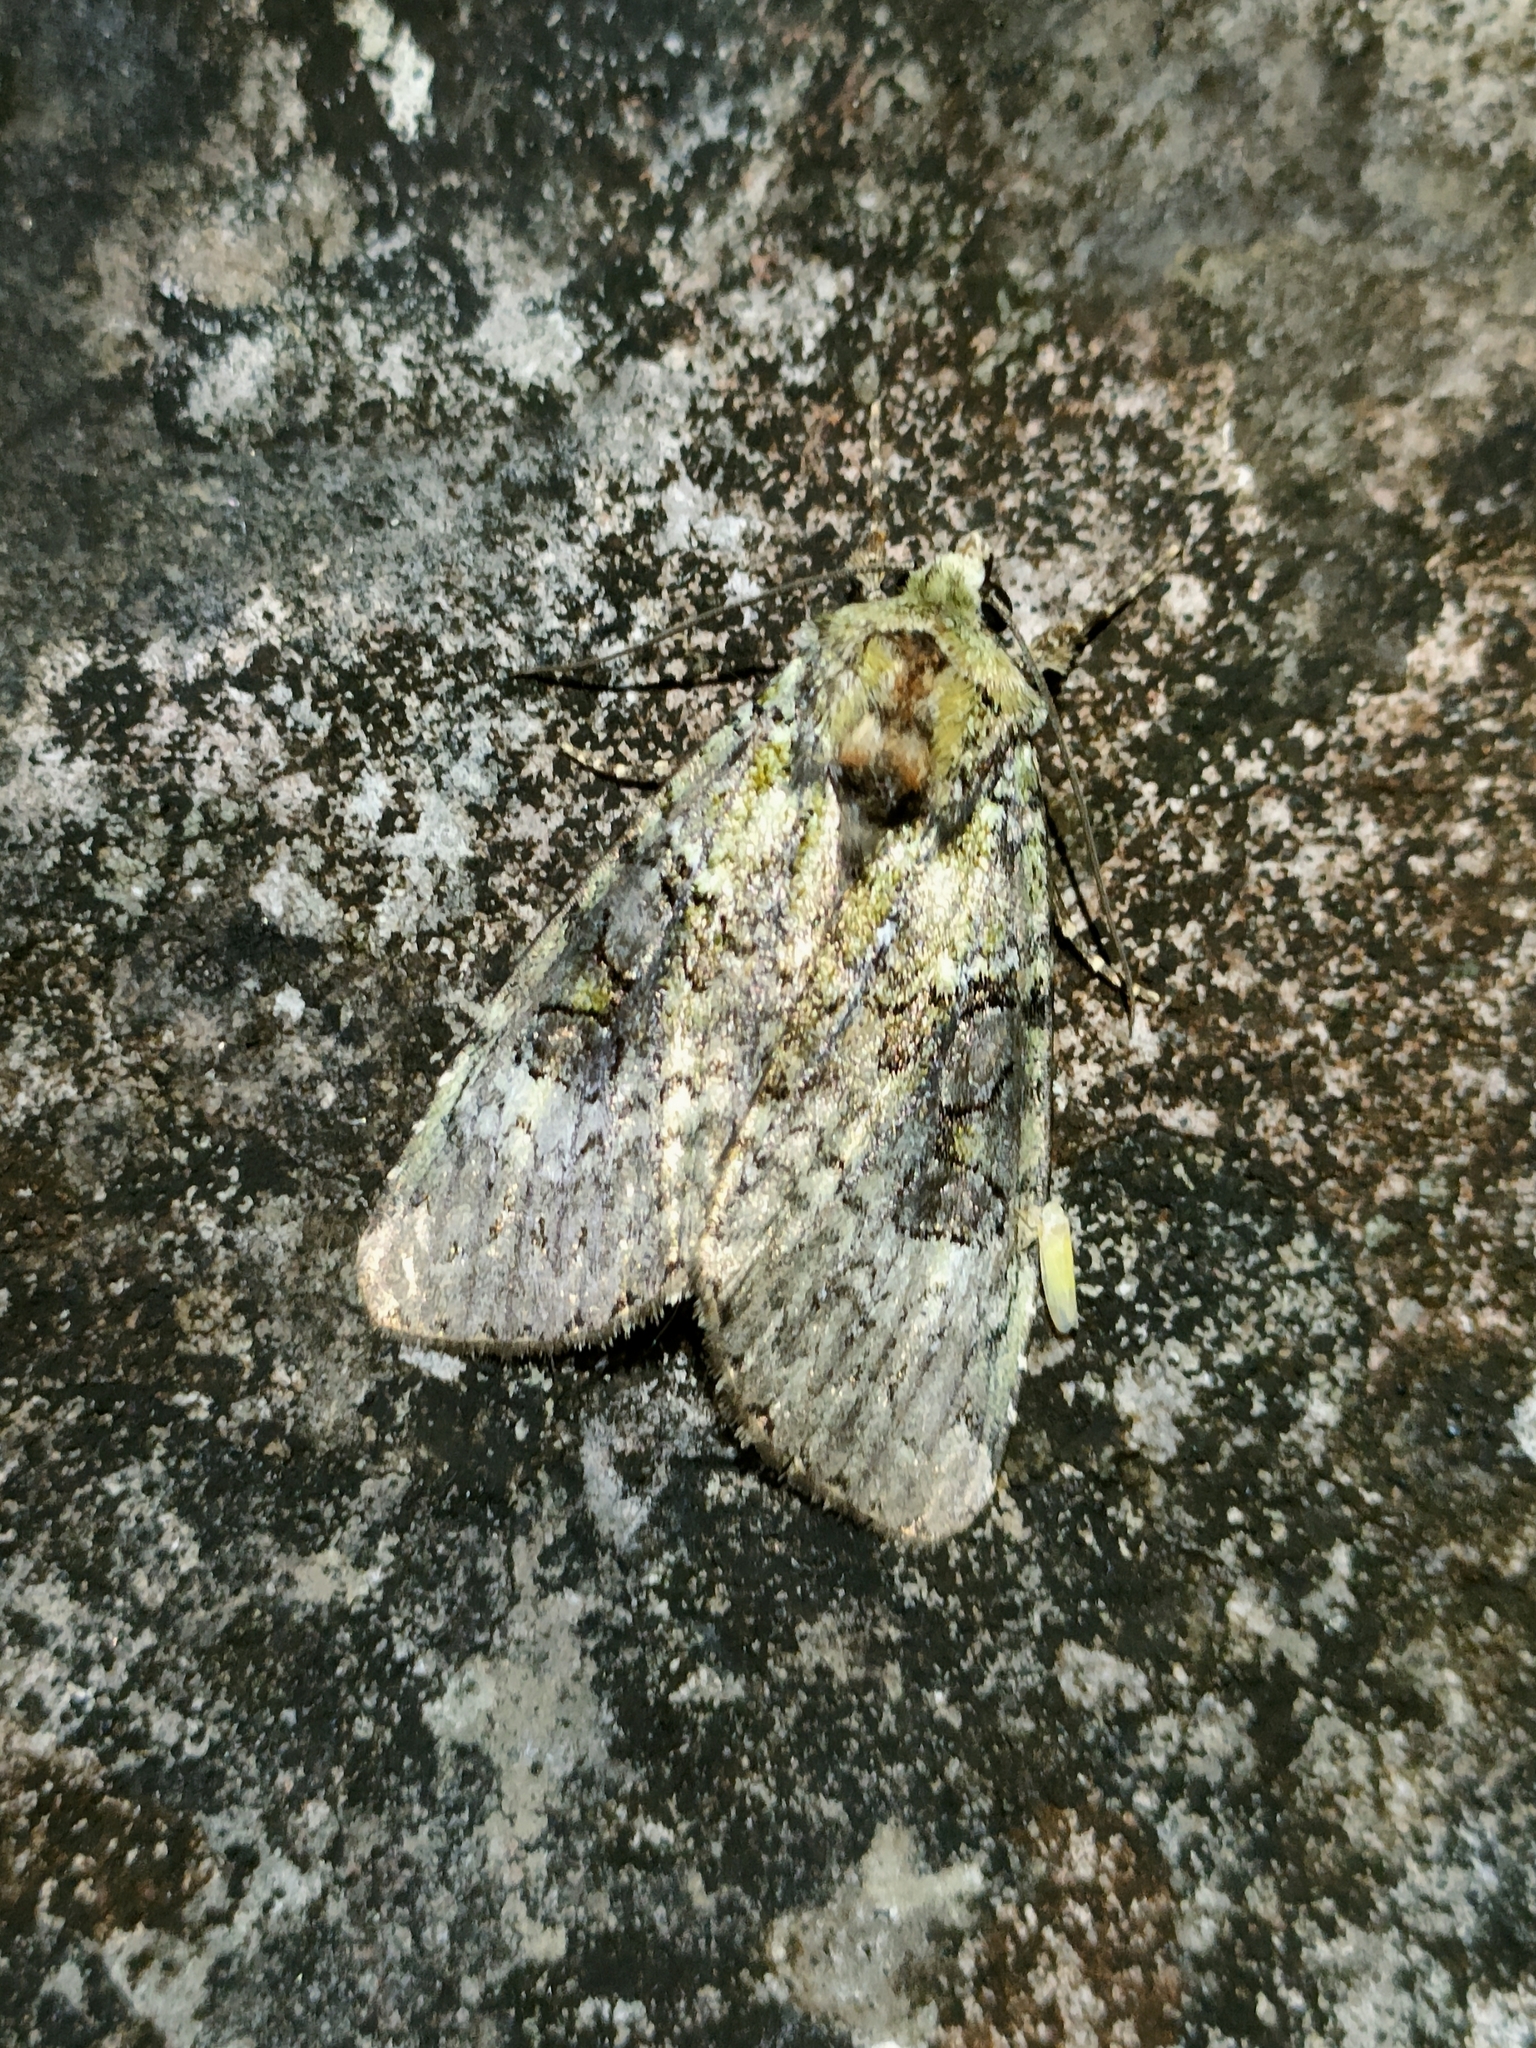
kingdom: Animalia
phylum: Arthropoda
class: Insecta
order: Lepidoptera
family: Noctuidae
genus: Anaplectoides
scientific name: Anaplectoides prasina
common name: Green arches
